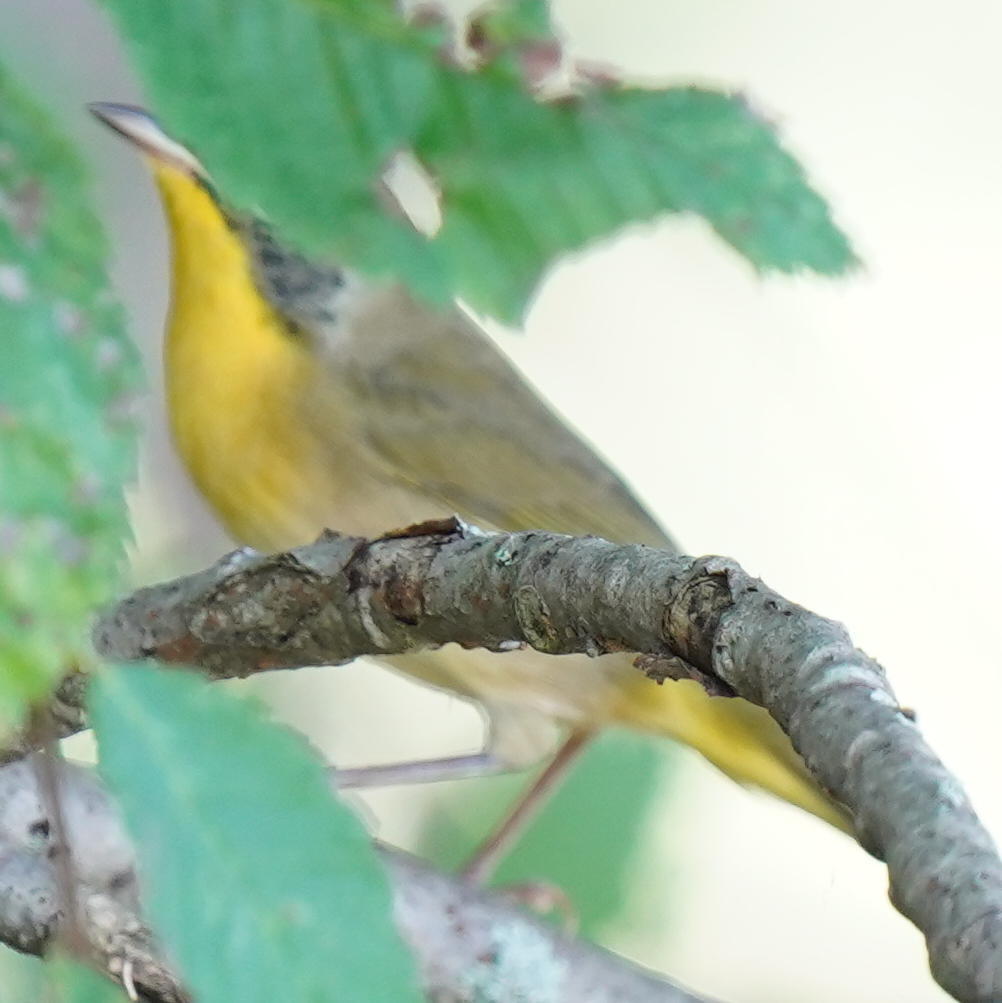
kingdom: Animalia
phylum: Chordata
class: Aves
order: Passeriformes
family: Parulidae
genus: Geothlypis
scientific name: Geothlypis trichas
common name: Common yellowthroat
